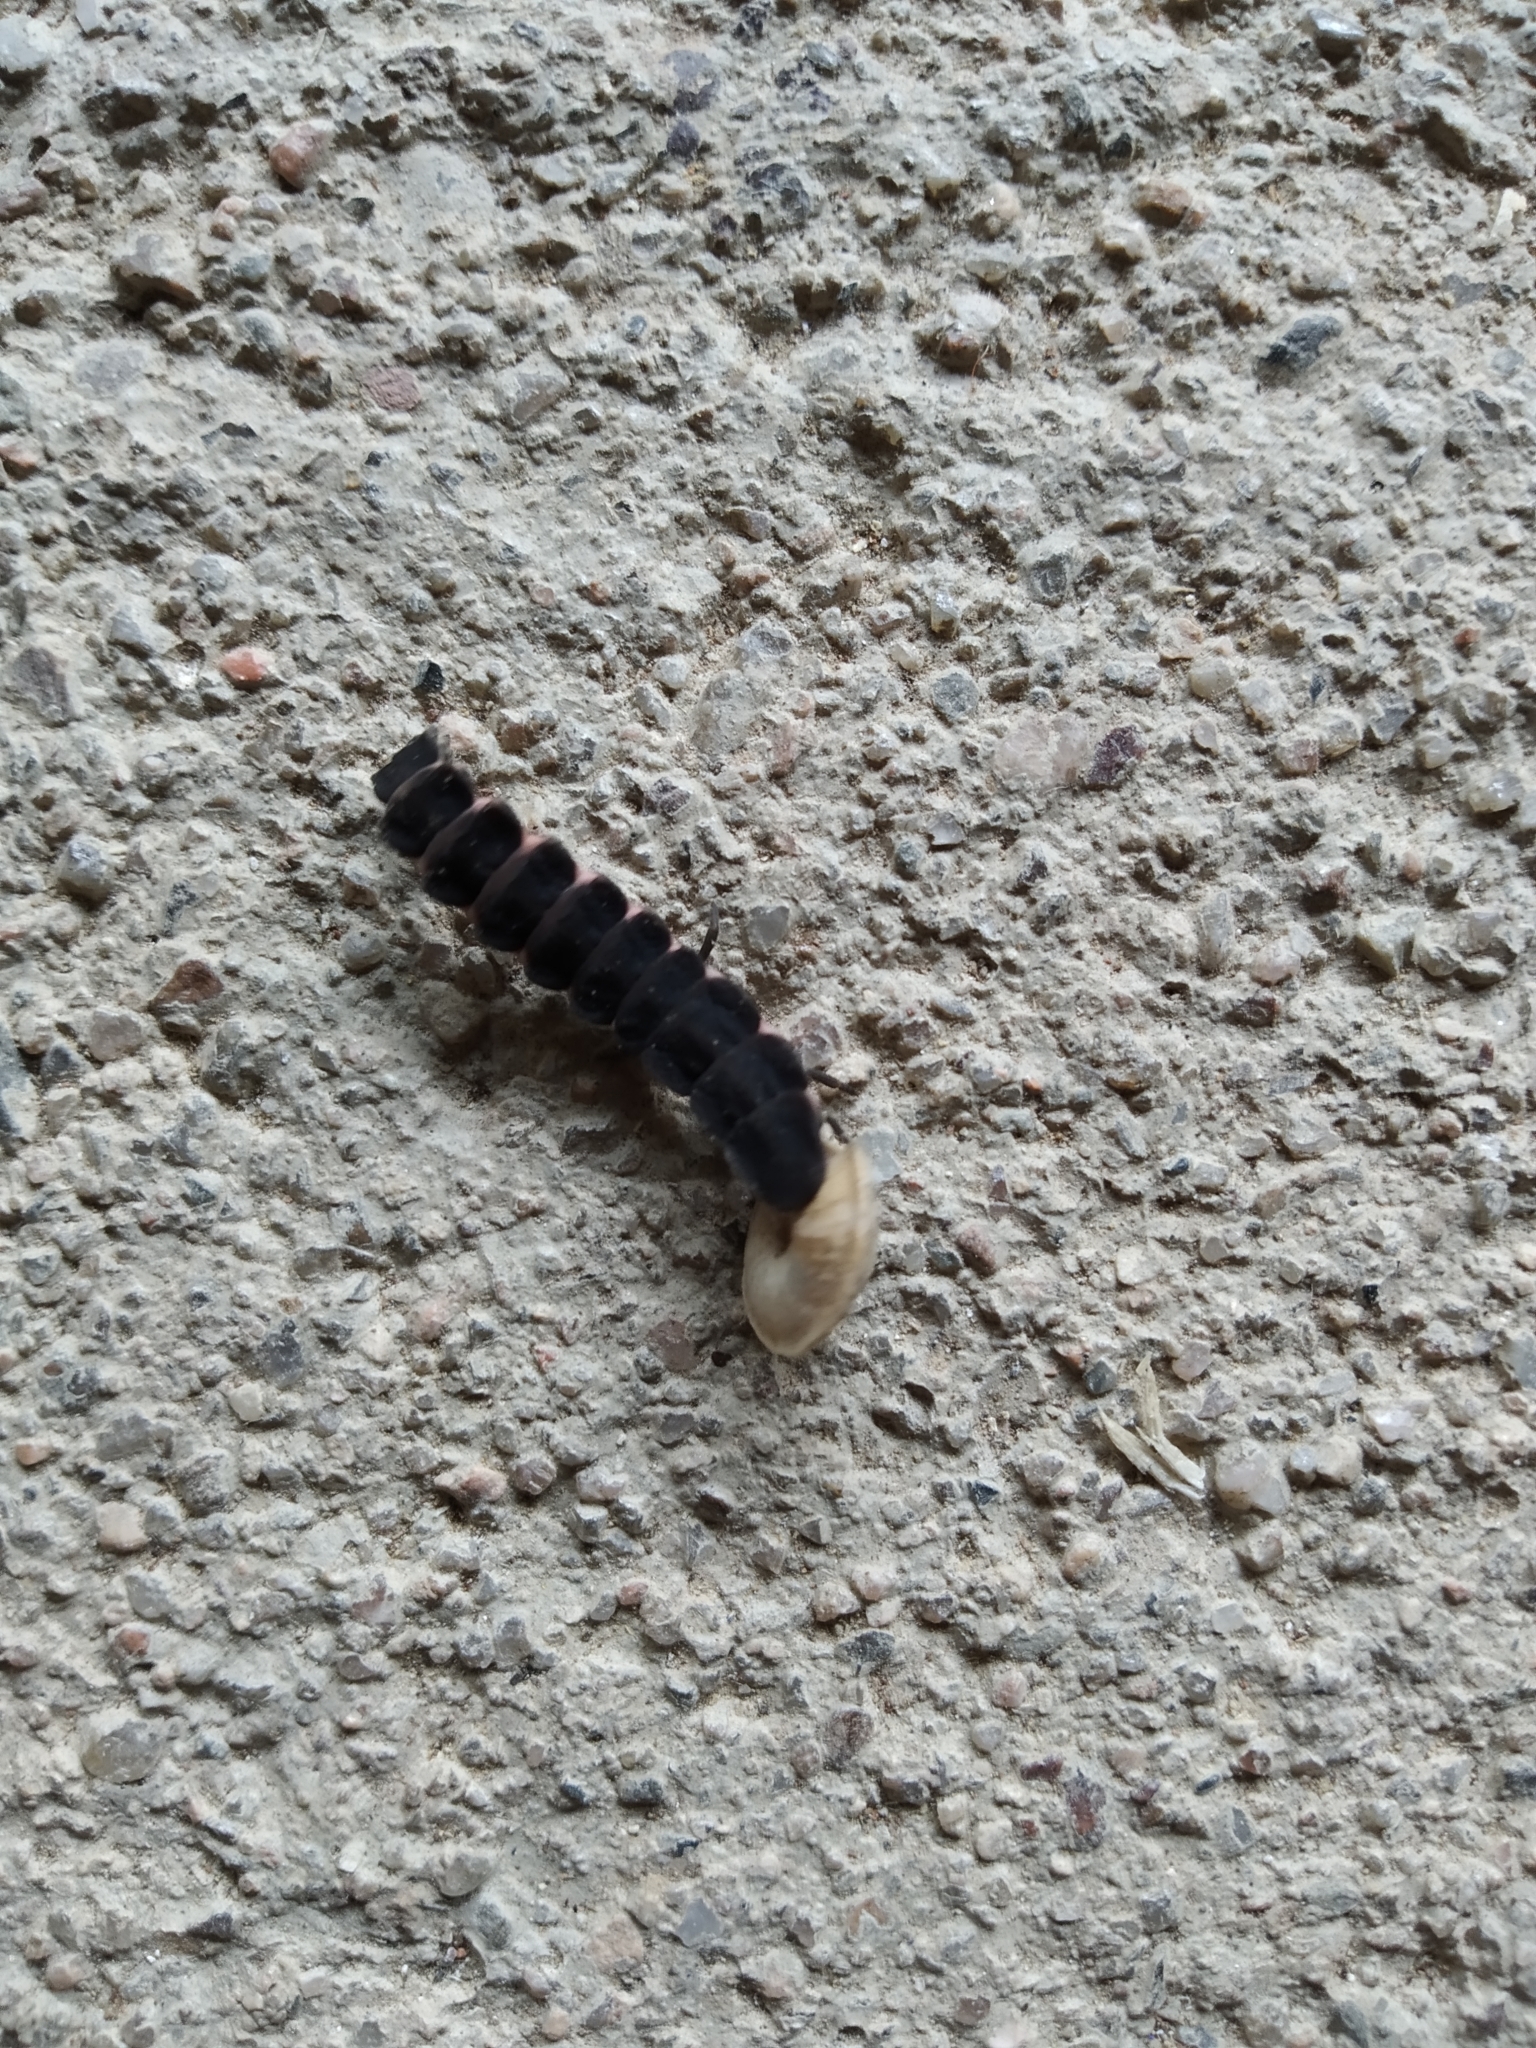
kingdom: Animalia
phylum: Arthropoda
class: Insecta
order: Coleoptera
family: Lampyridae
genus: Nyctophila
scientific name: Nyctophila reichii
